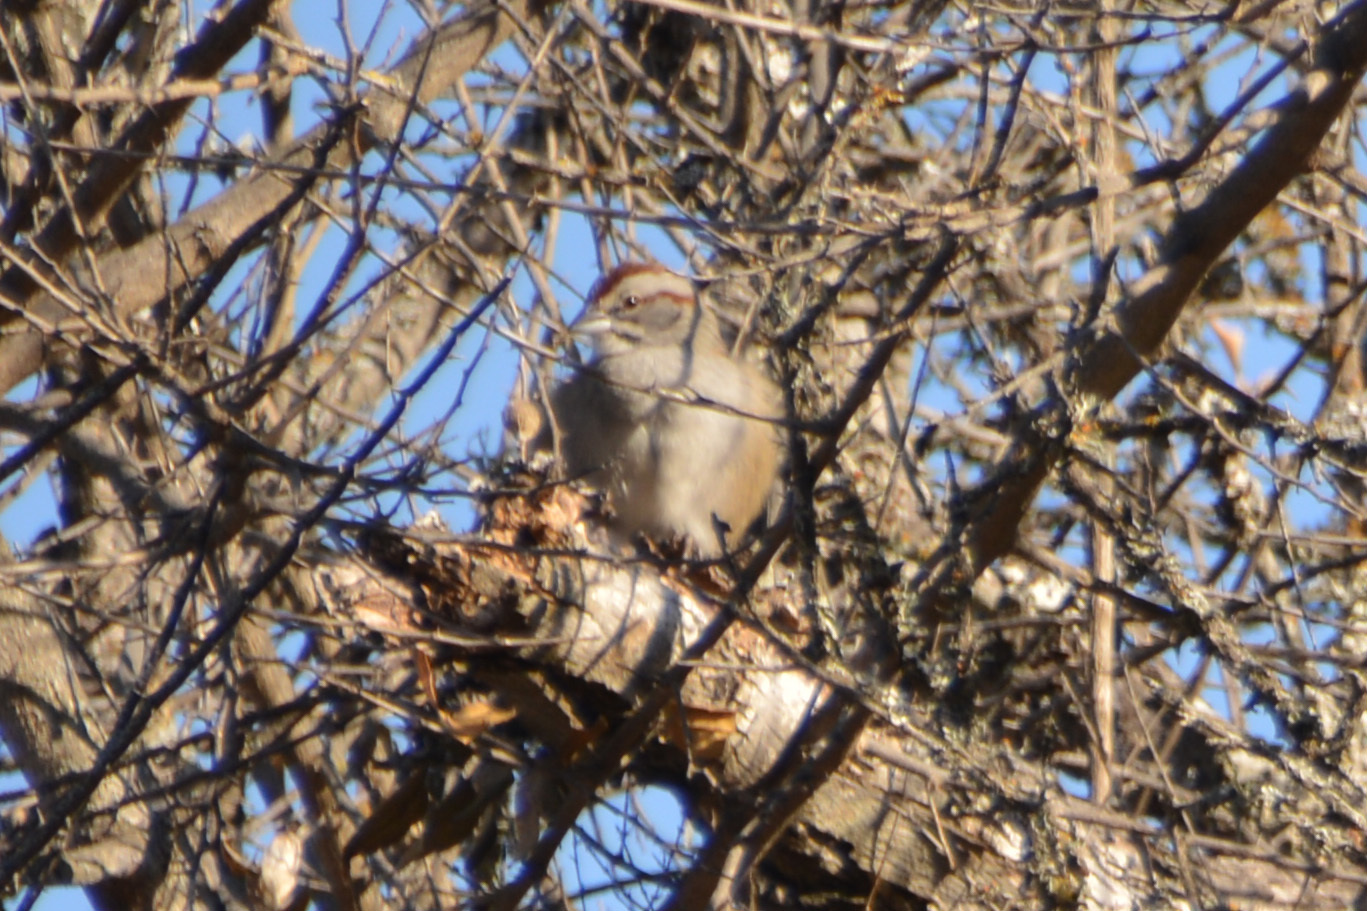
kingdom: Animalia
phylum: Chordata
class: Aves
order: Passeriformes
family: Passerellidae
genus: Rhynchospiza
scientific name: Rhynchospiza strigiceps
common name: Stripe-capped sparrow
